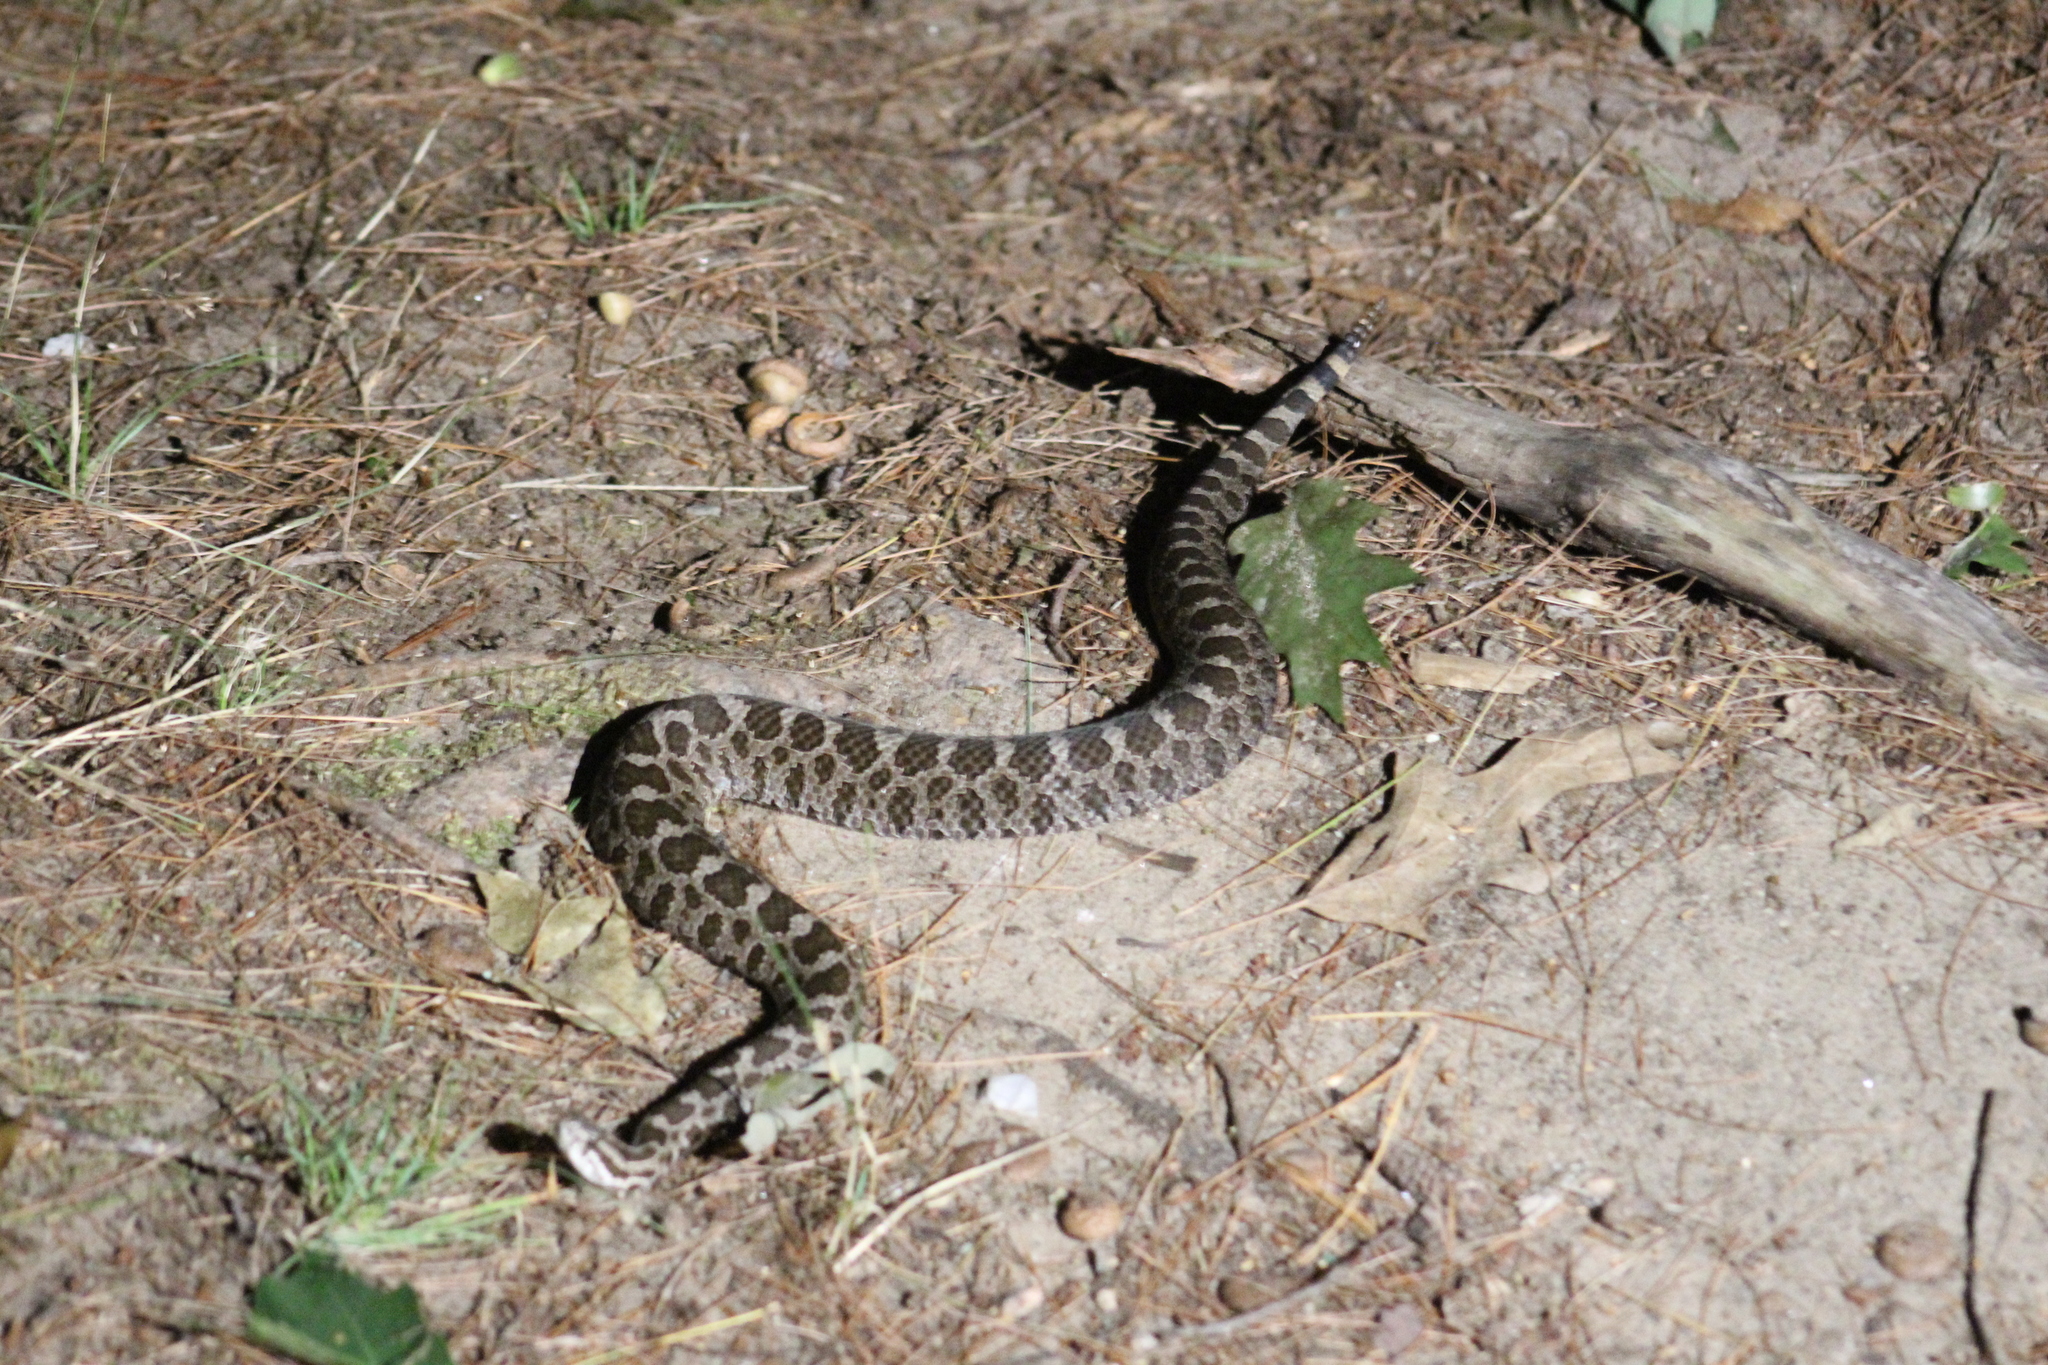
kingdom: Animalia
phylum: Chordata
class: Squamata
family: Viperidae
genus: Sistrurus
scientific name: Sistrurus catenatus
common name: Massasauga
